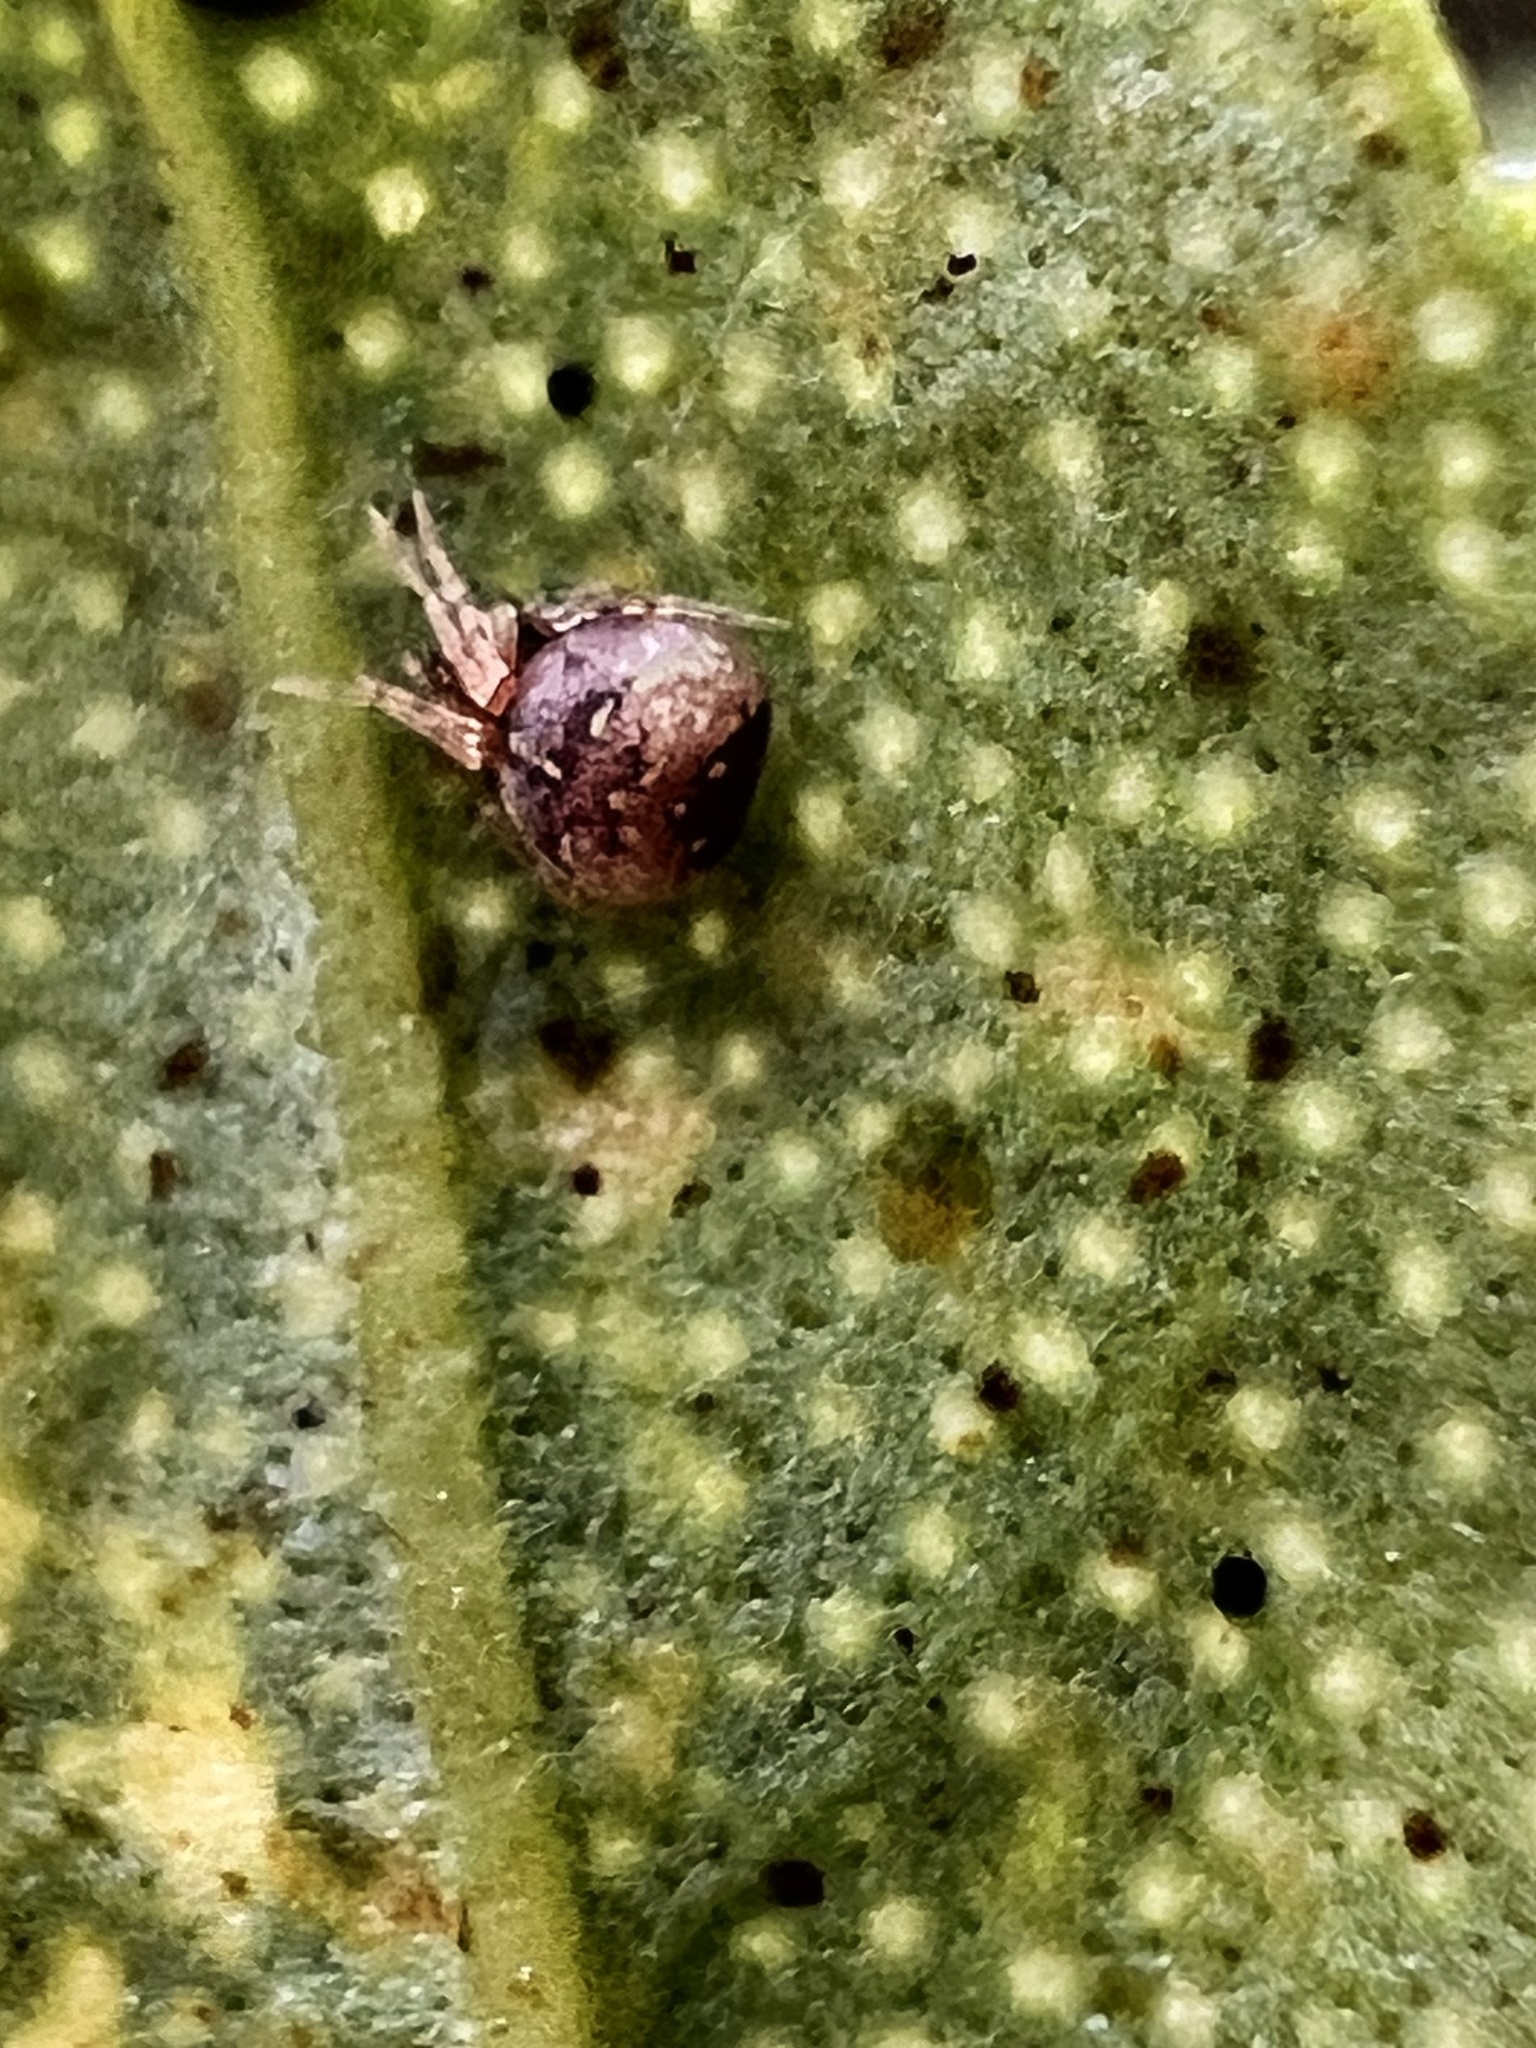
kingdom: Animalia
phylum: Arthropoda
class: Arachnida
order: Araneae
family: Theridiidae
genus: Parasteatoda
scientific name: Parasteatoda tepidariorum
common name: Common house spider
